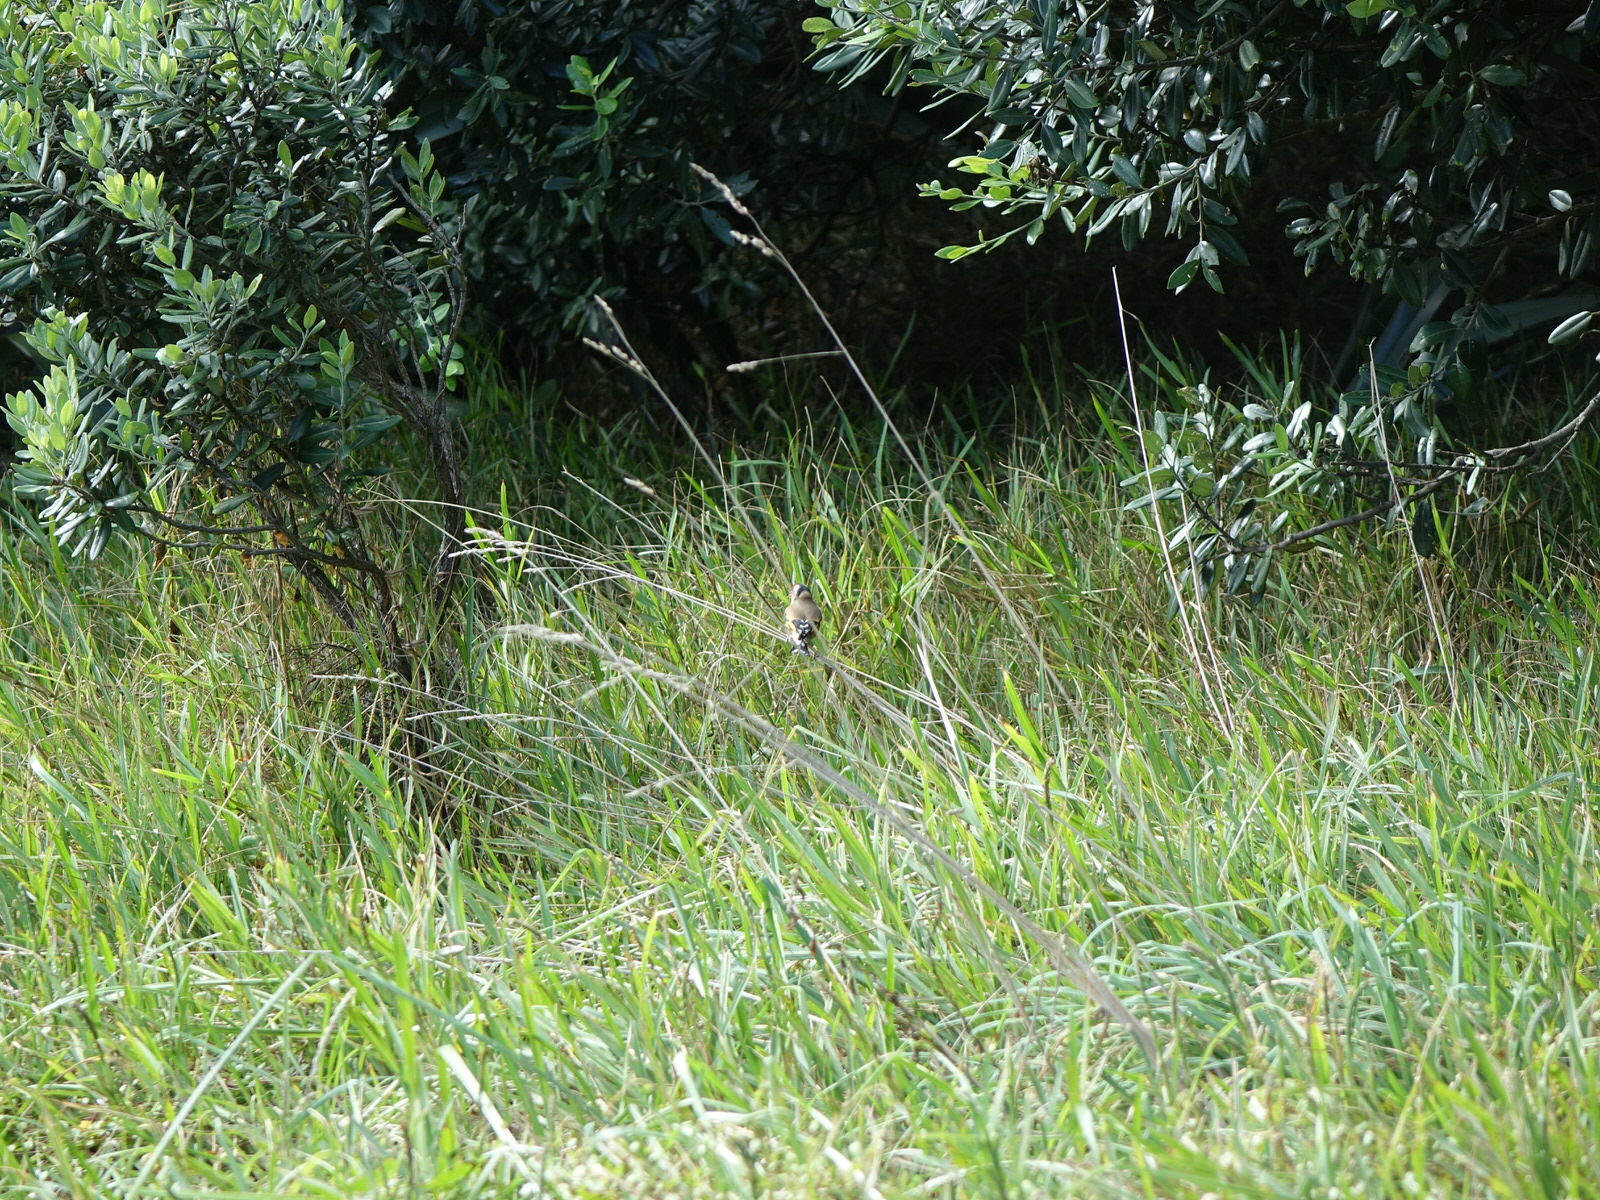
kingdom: Animalia
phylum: Chordata
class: Aves
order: Passeriformes
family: Fringillidae
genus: Carduelis
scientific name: Carduelis carduelis
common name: European goldfinch
